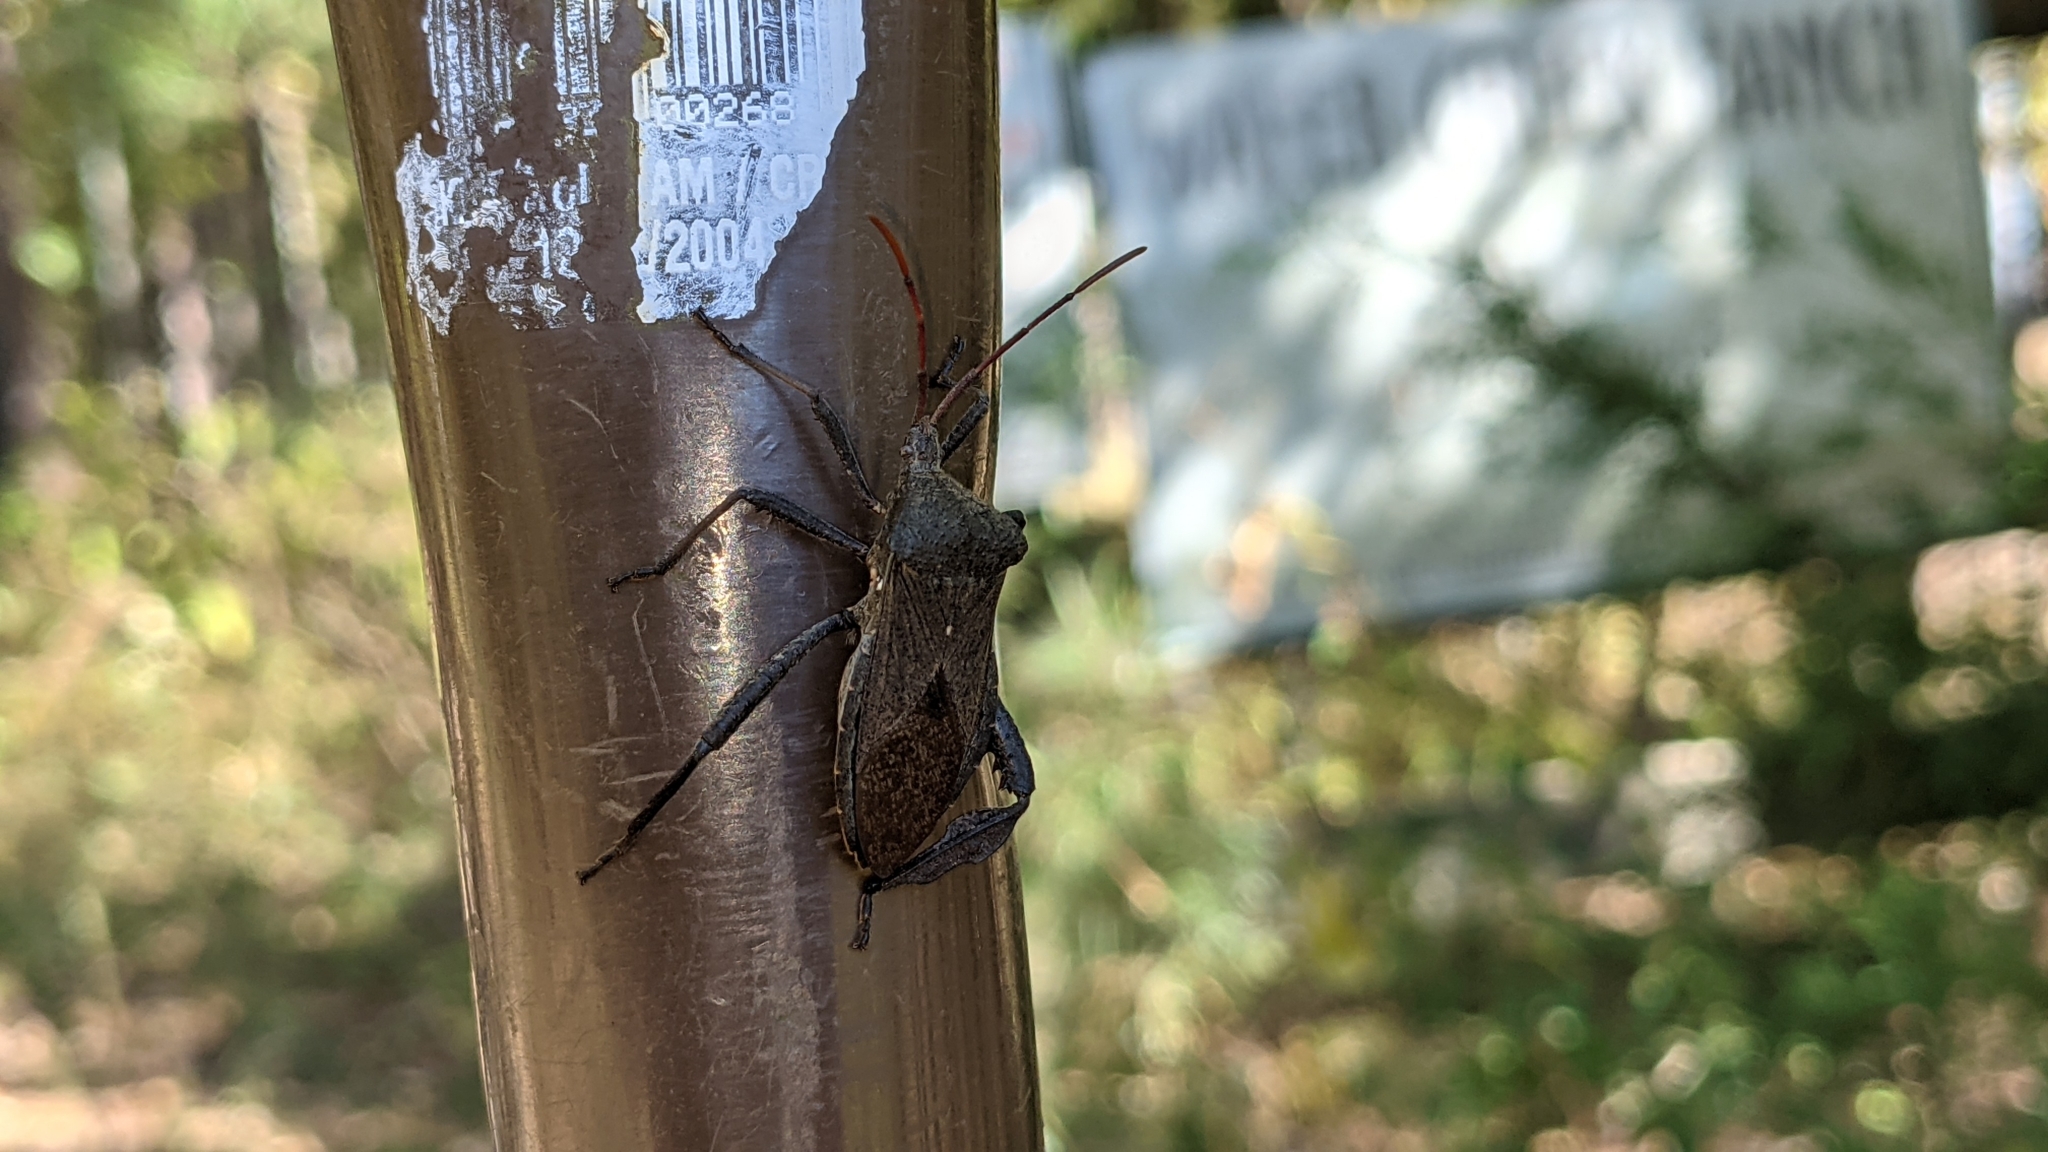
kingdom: Animalia
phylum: Arthropoda
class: Insecta
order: Hemiptera
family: Coreidae
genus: Acanthocephala
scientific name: Acanthocephala femorata
